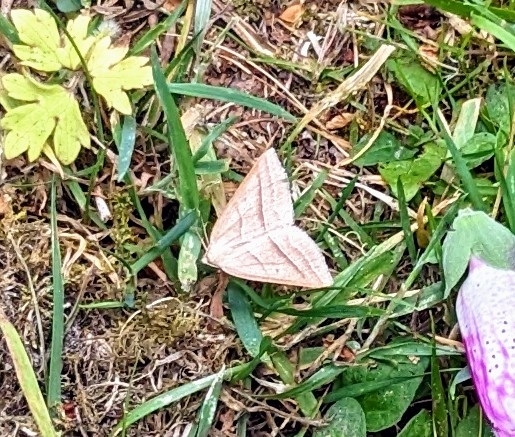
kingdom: Animalia
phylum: Arthropoda
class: Insecta
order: Lepidoptera
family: Pterophoridae
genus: Pterophorus
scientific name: Pterophorus Petrophora chlorosata
